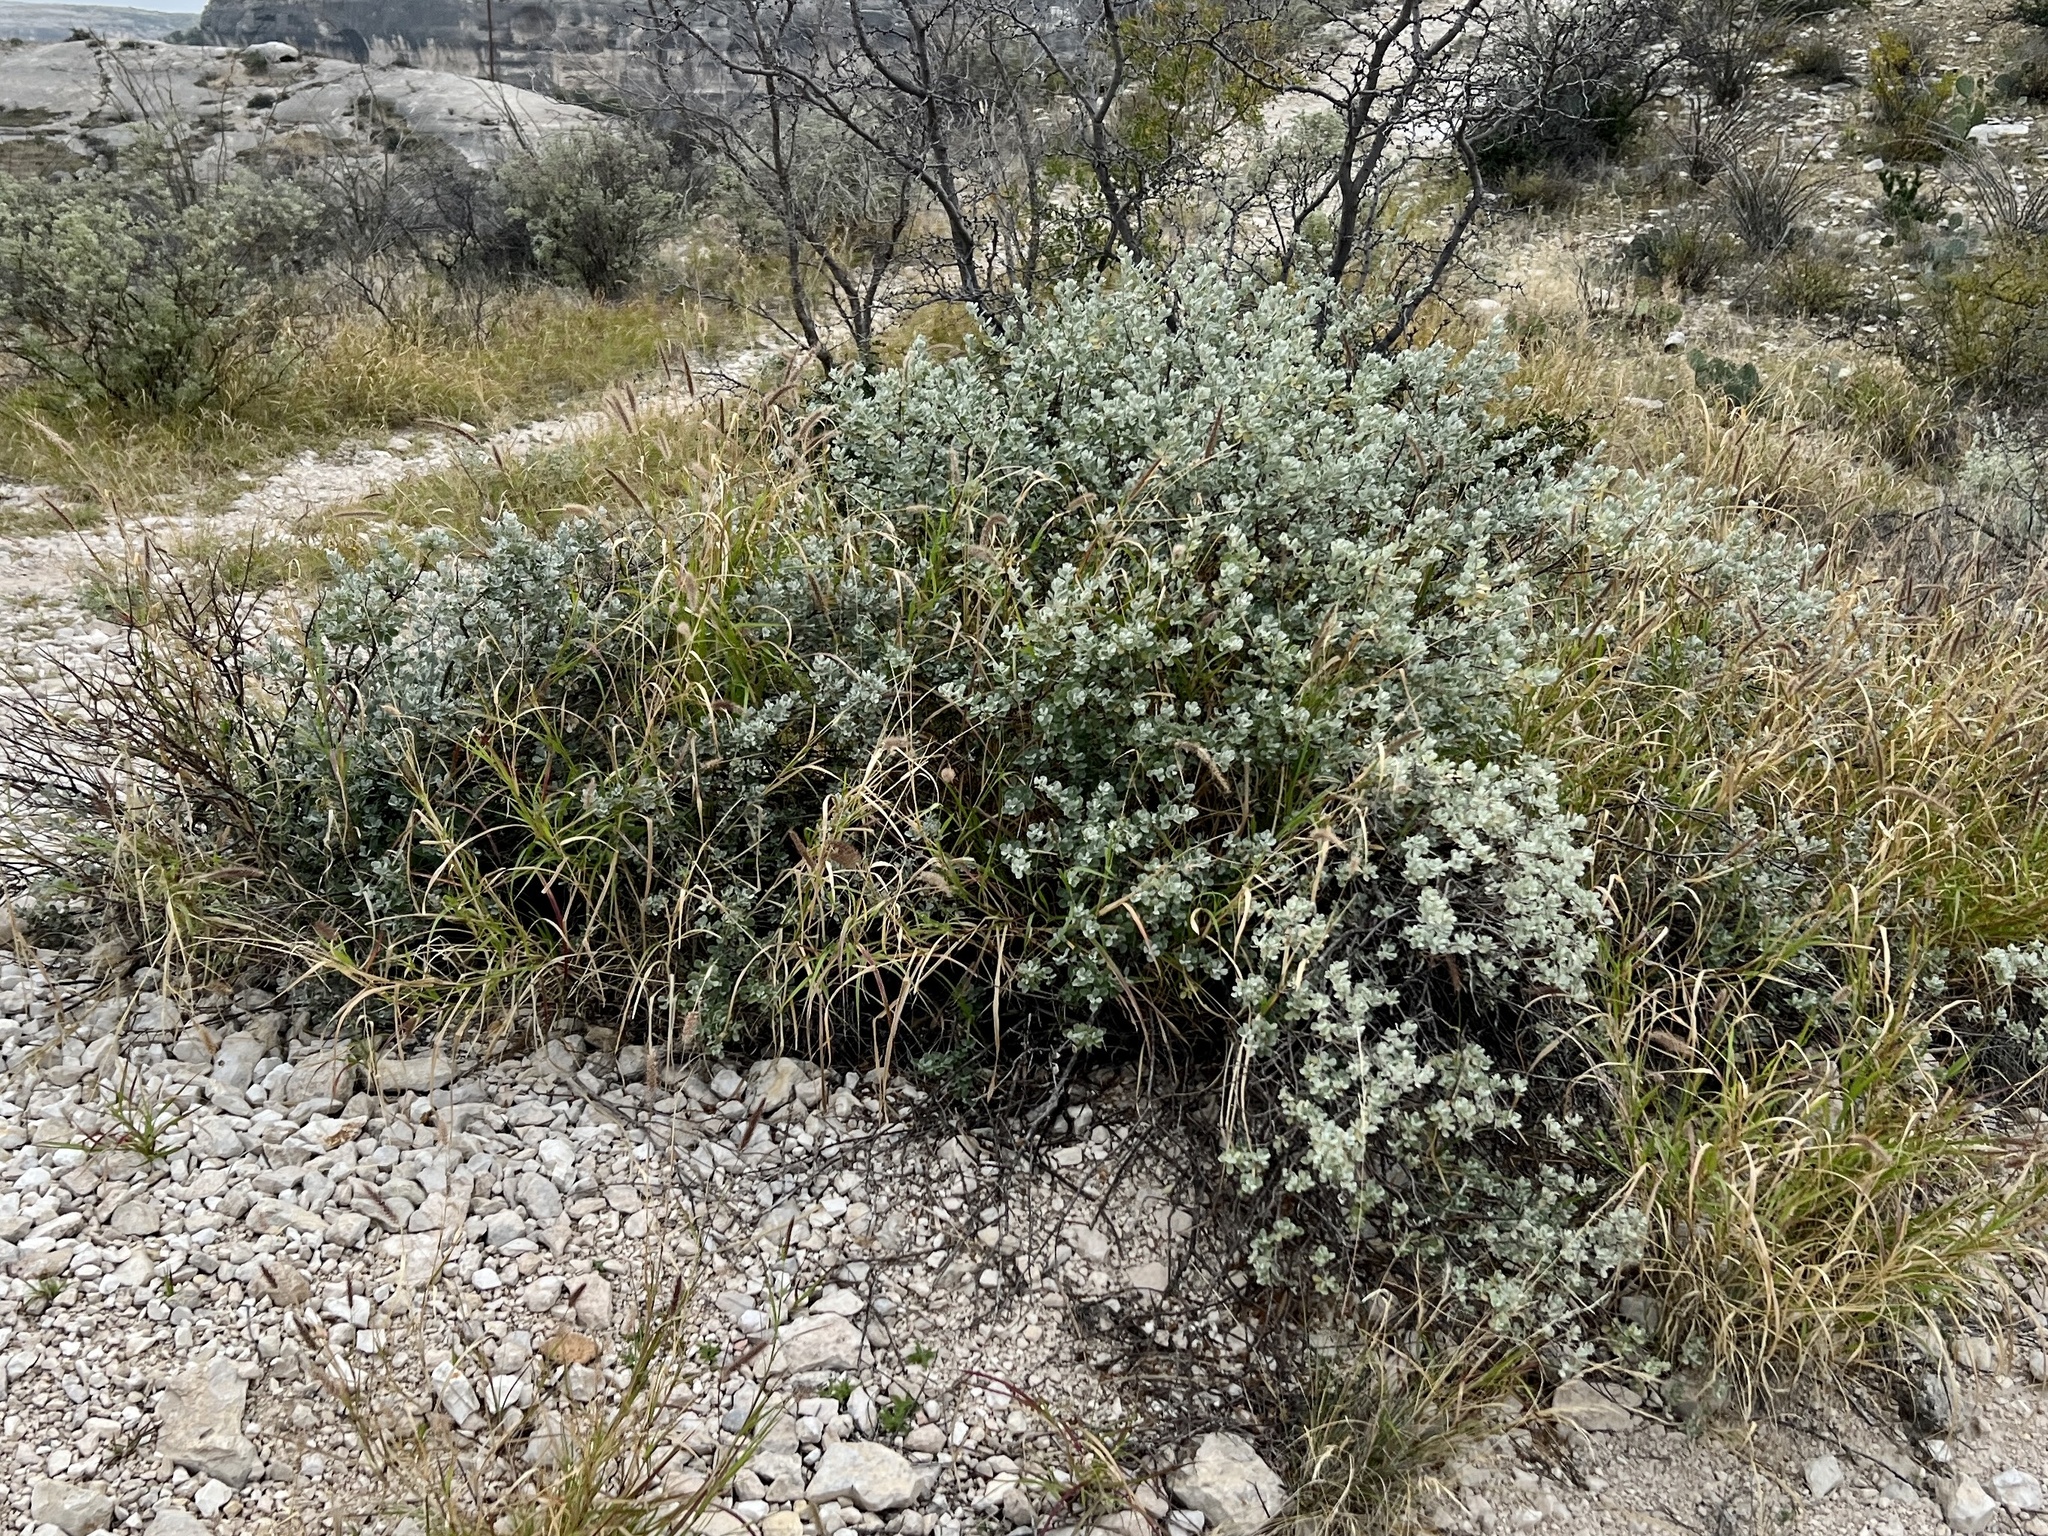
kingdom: Plantae
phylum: Tracheophyta
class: Magnoliopsida
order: Lamiales
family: Scrophulariaceae
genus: Leucophyllum
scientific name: Leucophyllum frutescens
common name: Texas silverleaf
